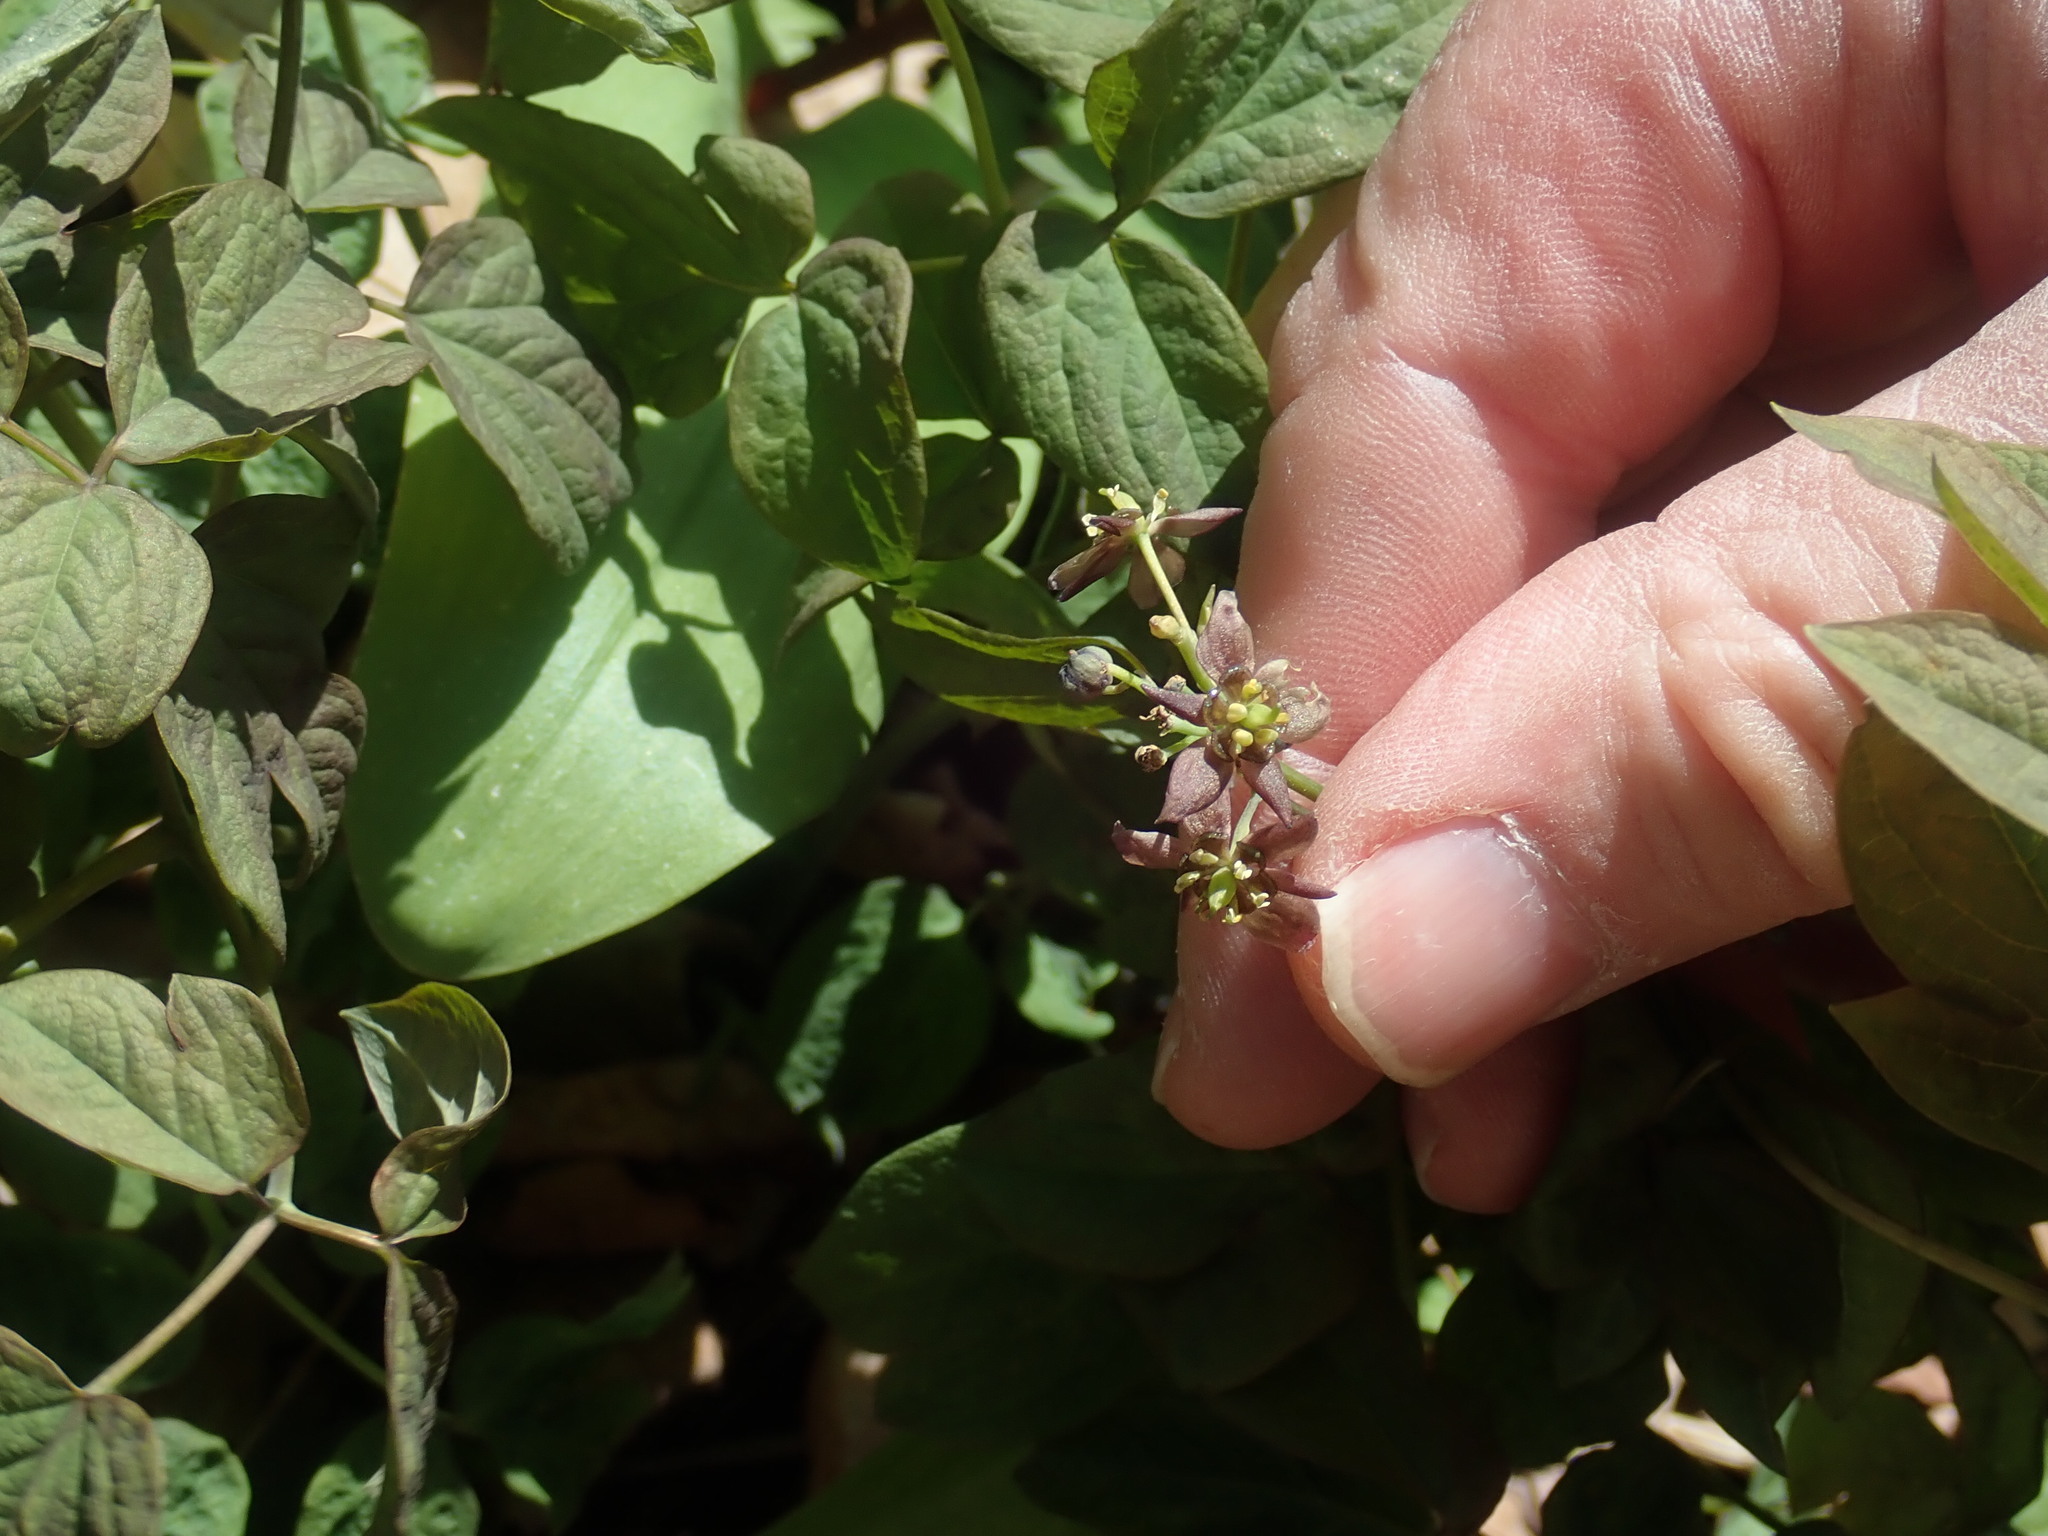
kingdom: Plantae
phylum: Tracheophyta
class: Magnoliopsida
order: Ranunculales
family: Berberidaceae
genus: Caulophyllum
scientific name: Caulophyllum thalictroides
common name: Blue cohosh
